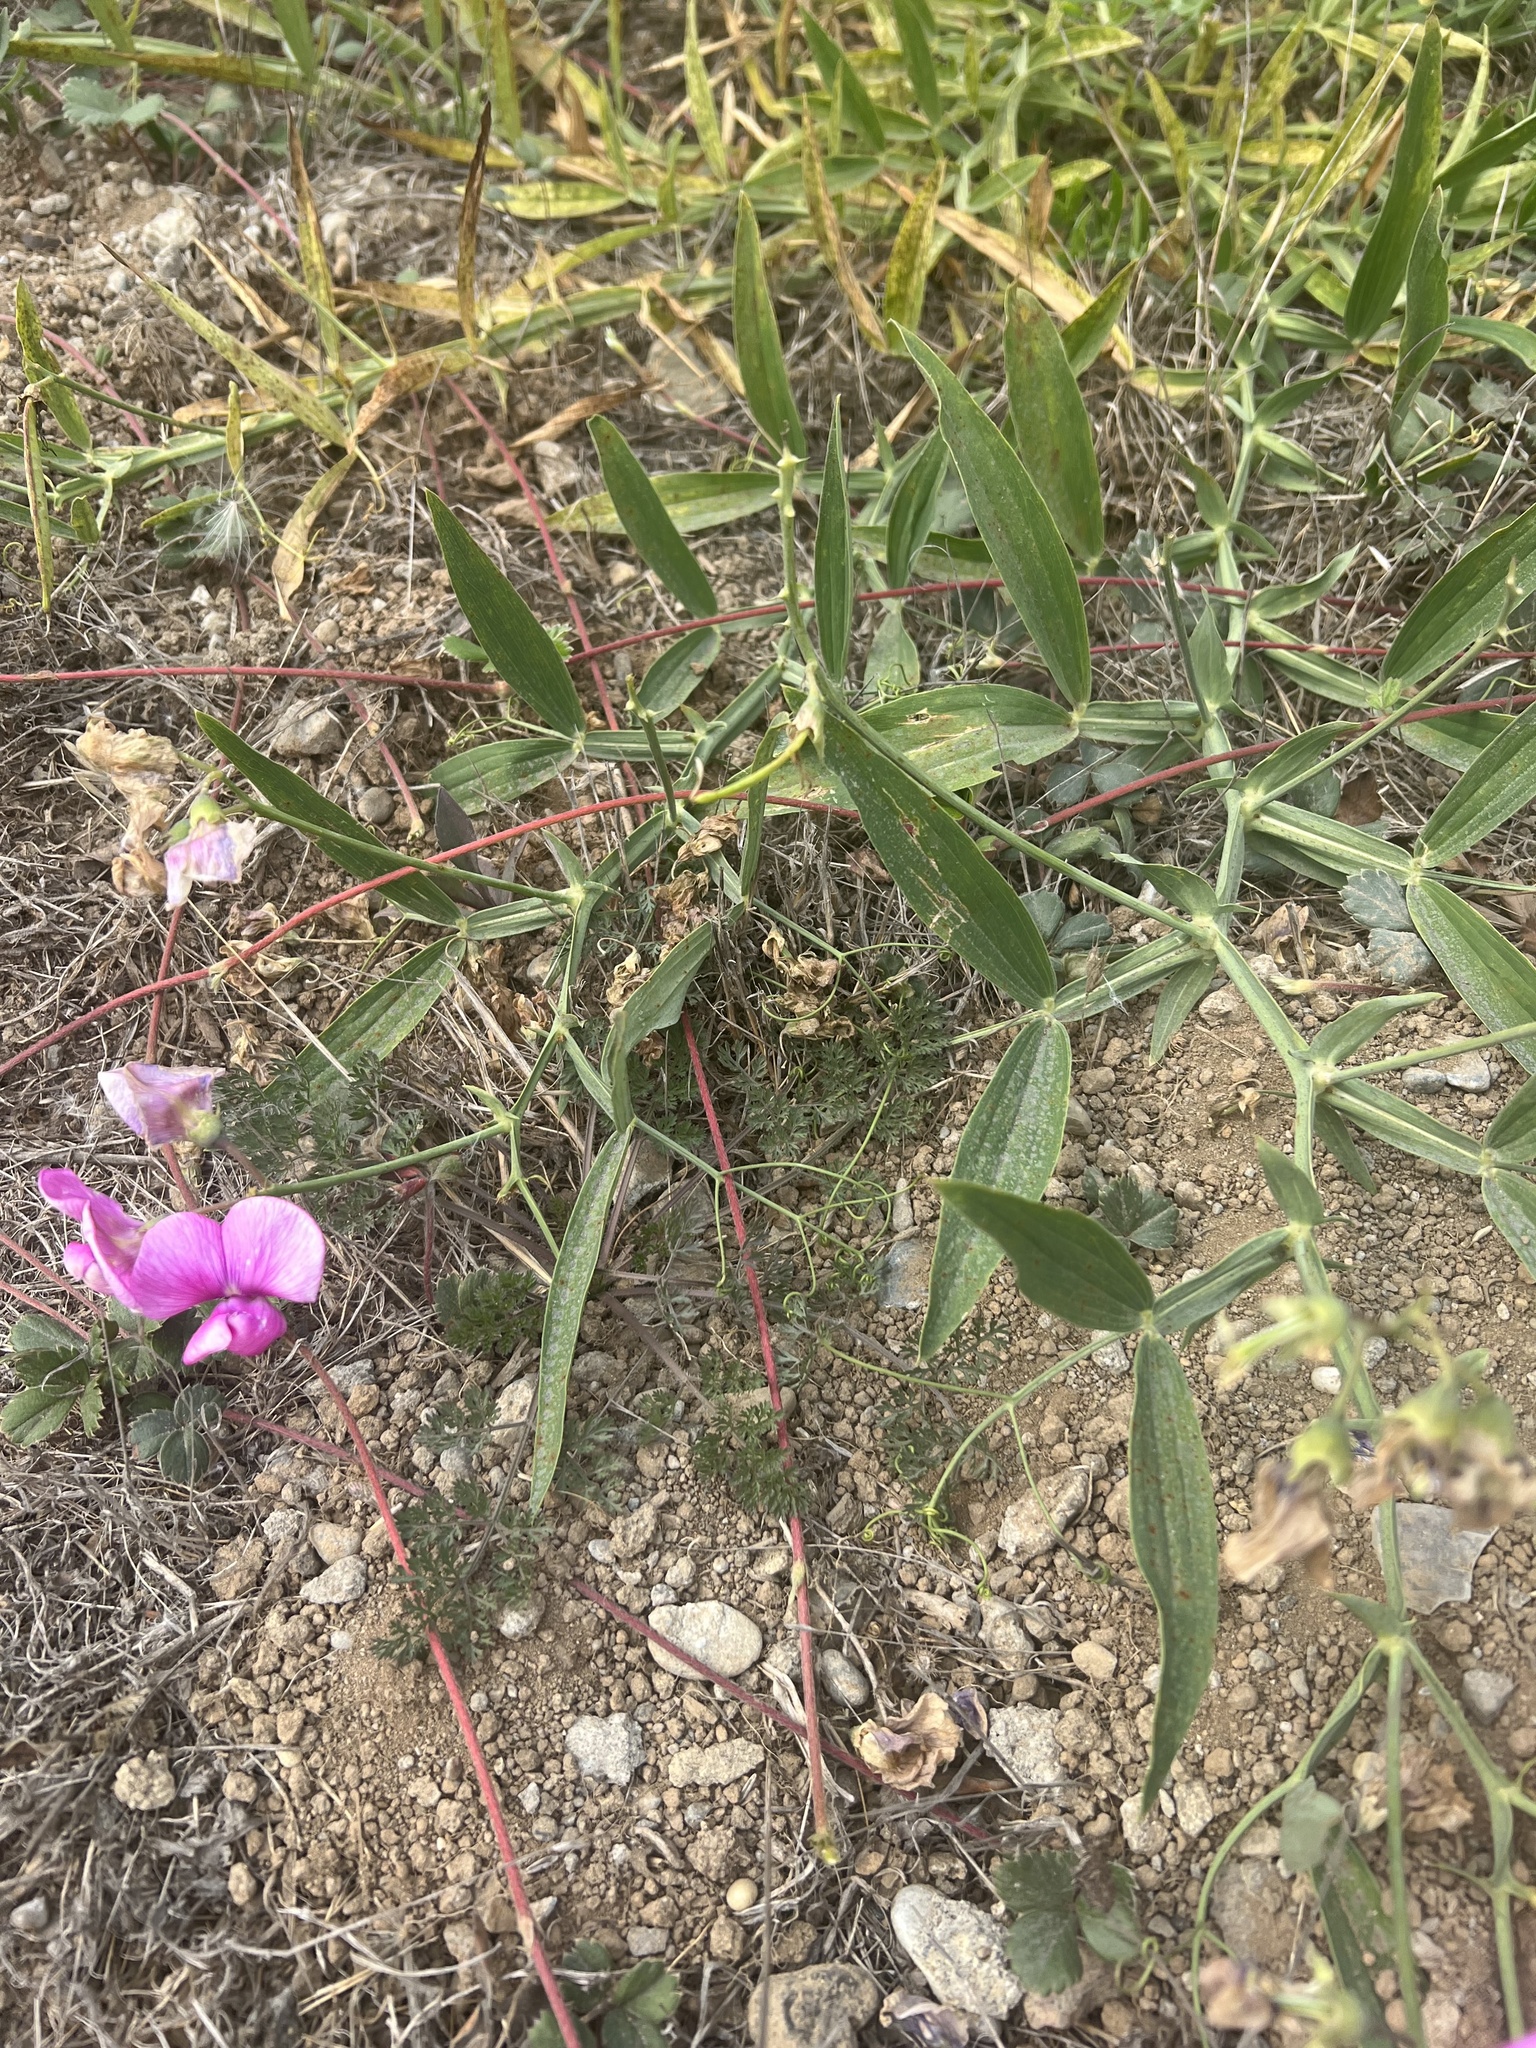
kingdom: Plantae
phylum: Tracheophyta
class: Magnoliopsida
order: Fabales
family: Fabaceae
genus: Lathyrus
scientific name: Lathyrus latifolius
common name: Perennial pea
